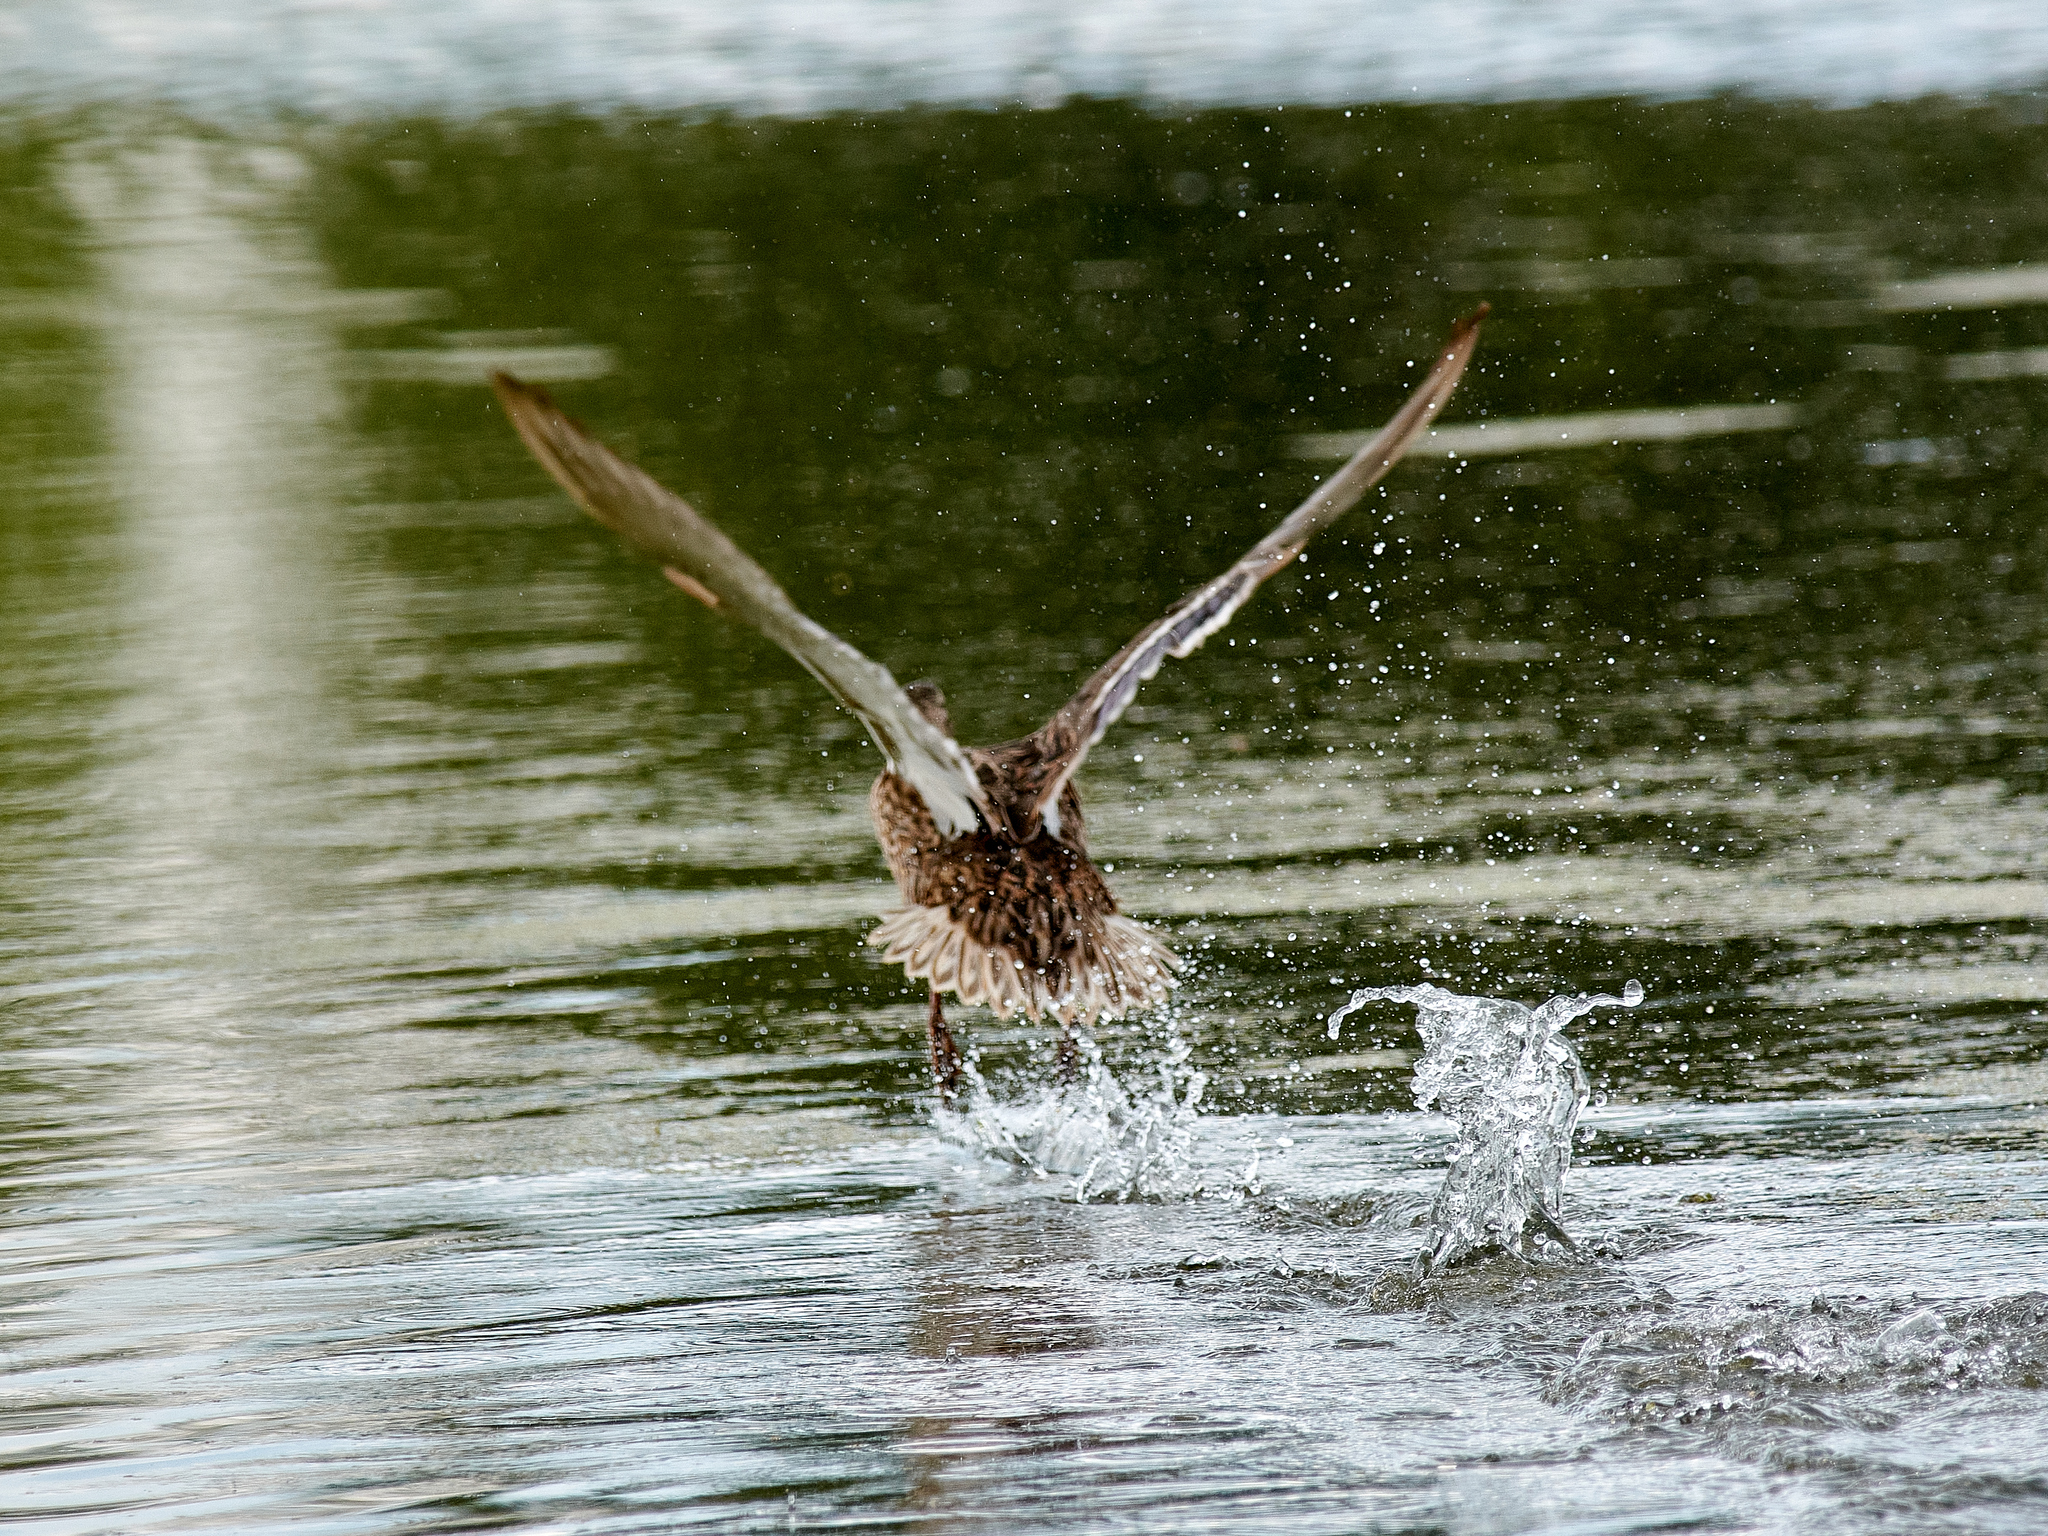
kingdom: Animalia
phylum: Chordata
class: Aves
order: Anseriformes
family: Anatidae
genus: Anas
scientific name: Anas platyrhynchos
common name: Mallard
